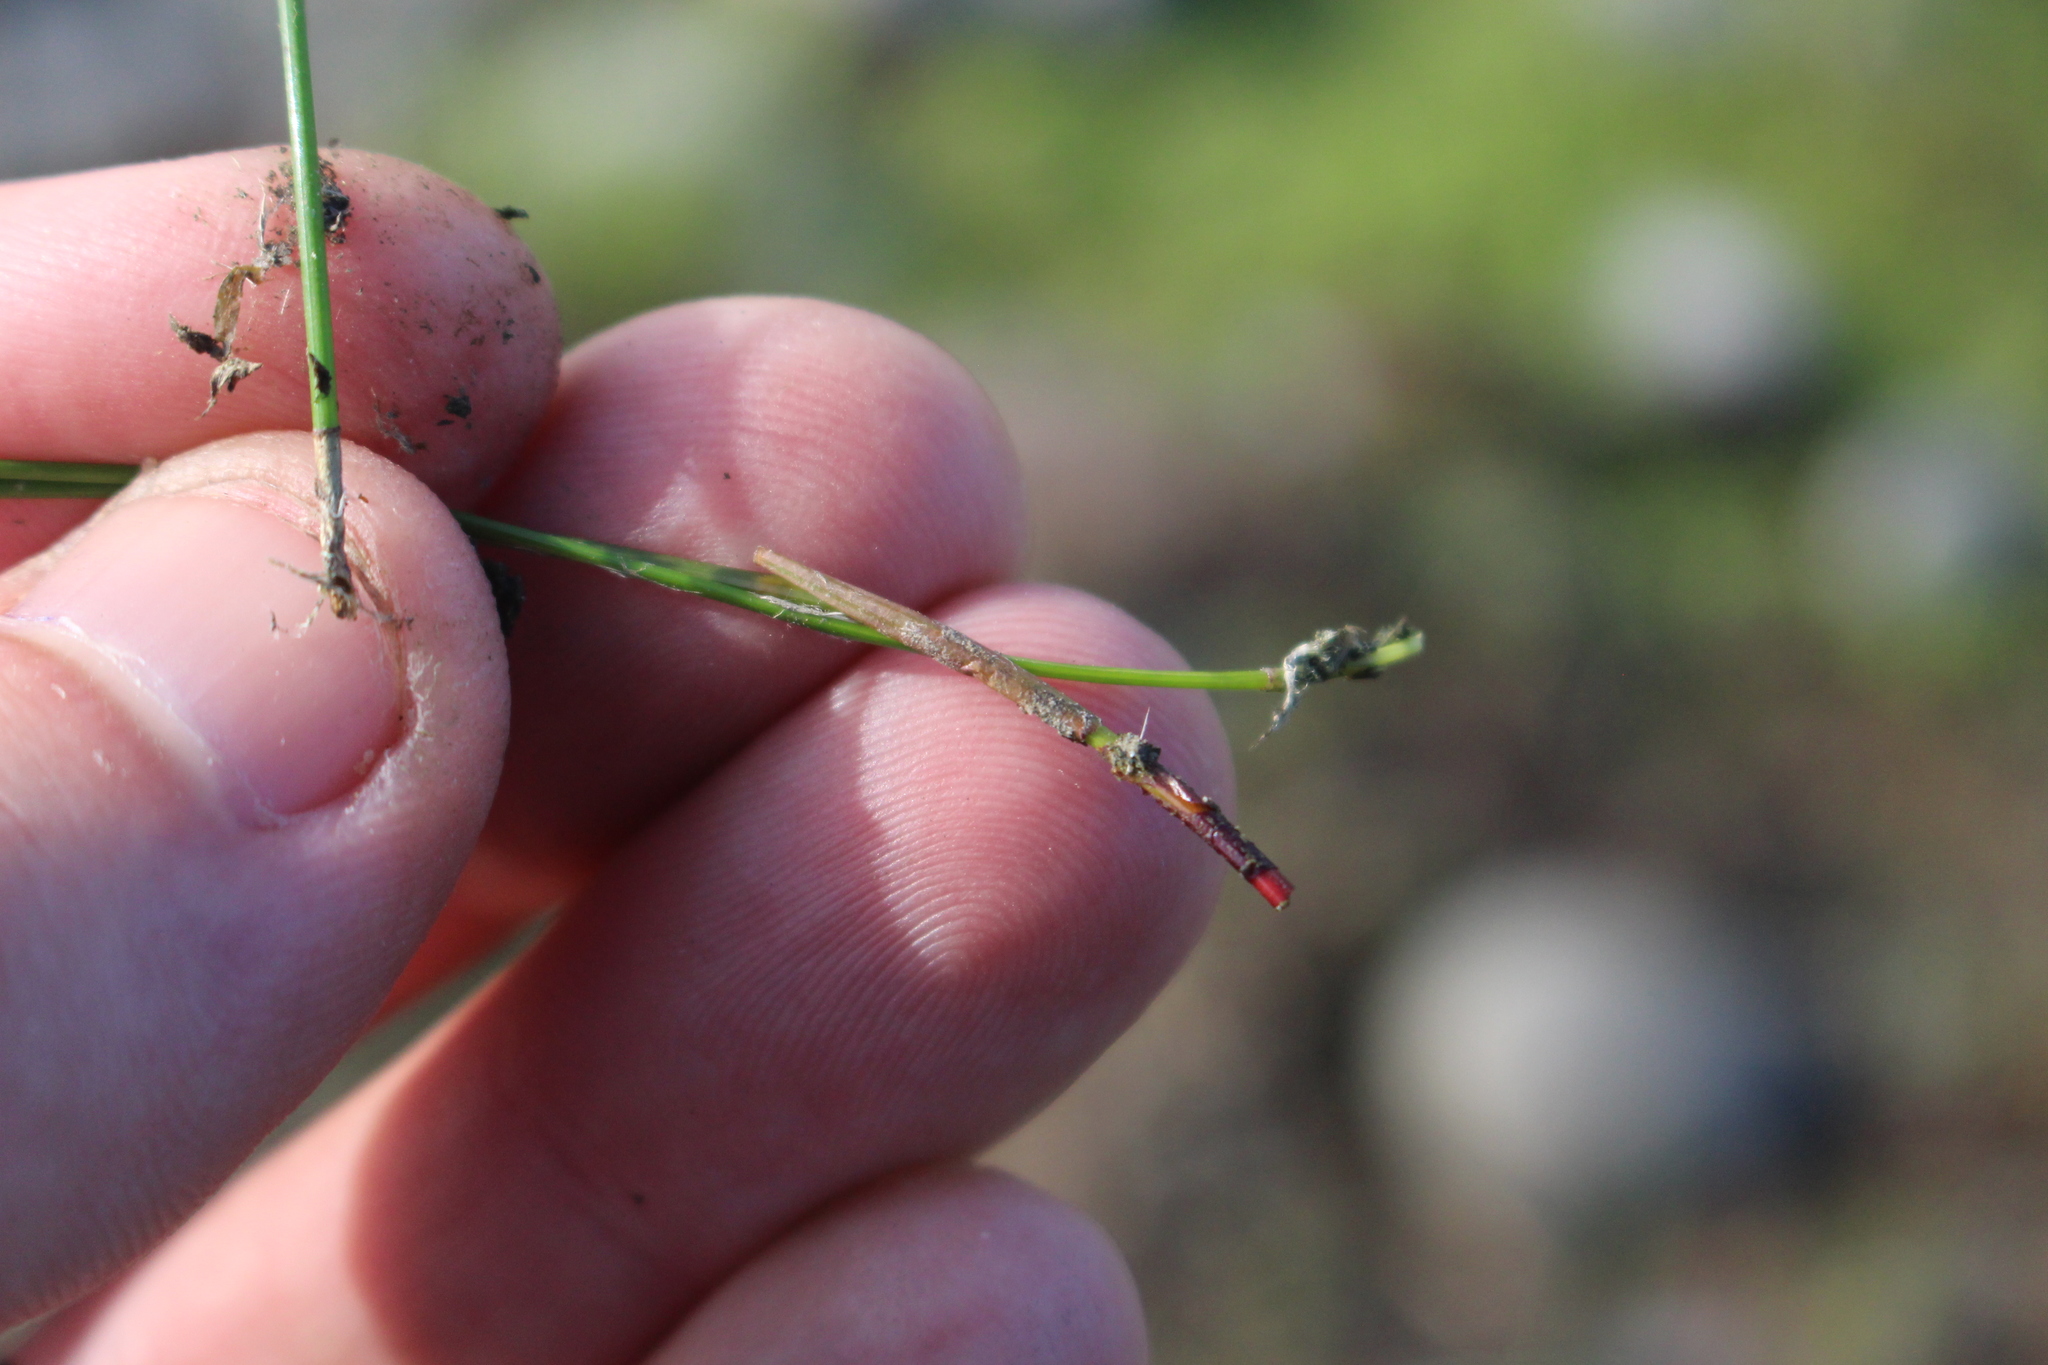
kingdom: Plantae
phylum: Tracheophyta
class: Liliopsida
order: Poales
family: Cyperaceae
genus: Eleocharis
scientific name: Eleocharis gracilis
